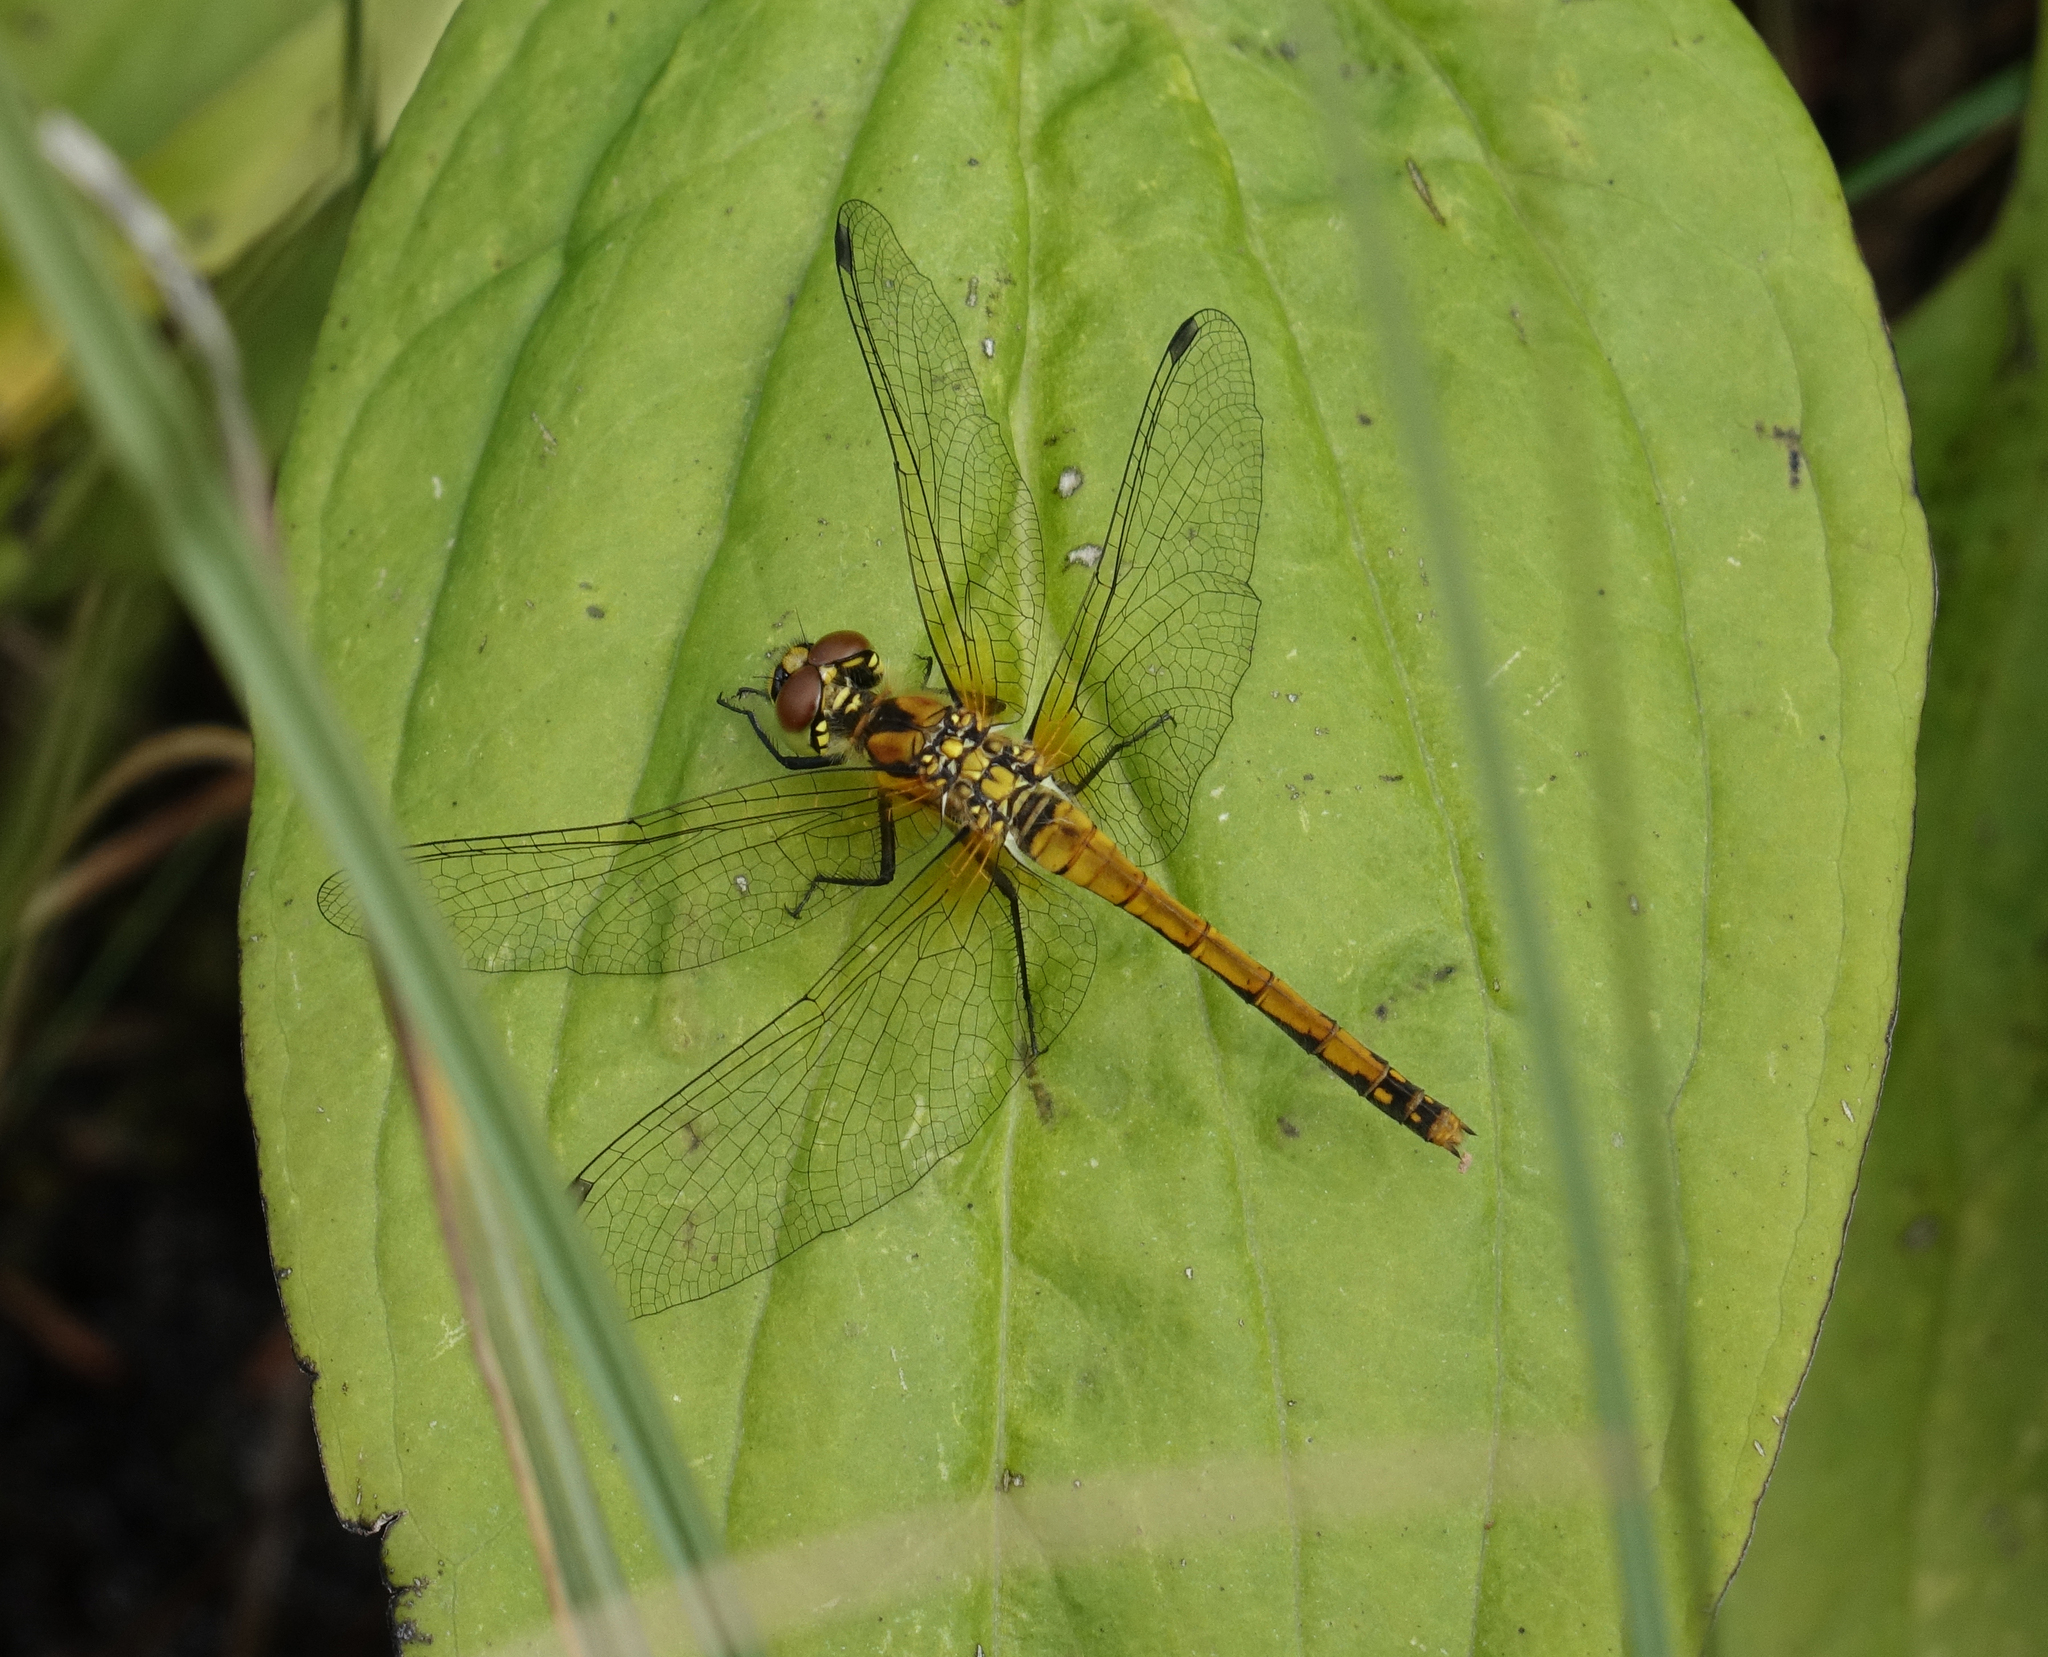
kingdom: Animalia
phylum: Arthropoda
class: Insecta
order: Odonata
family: Libellulidae
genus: Sympetrum
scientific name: Sympetrum danae
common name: Black darter
